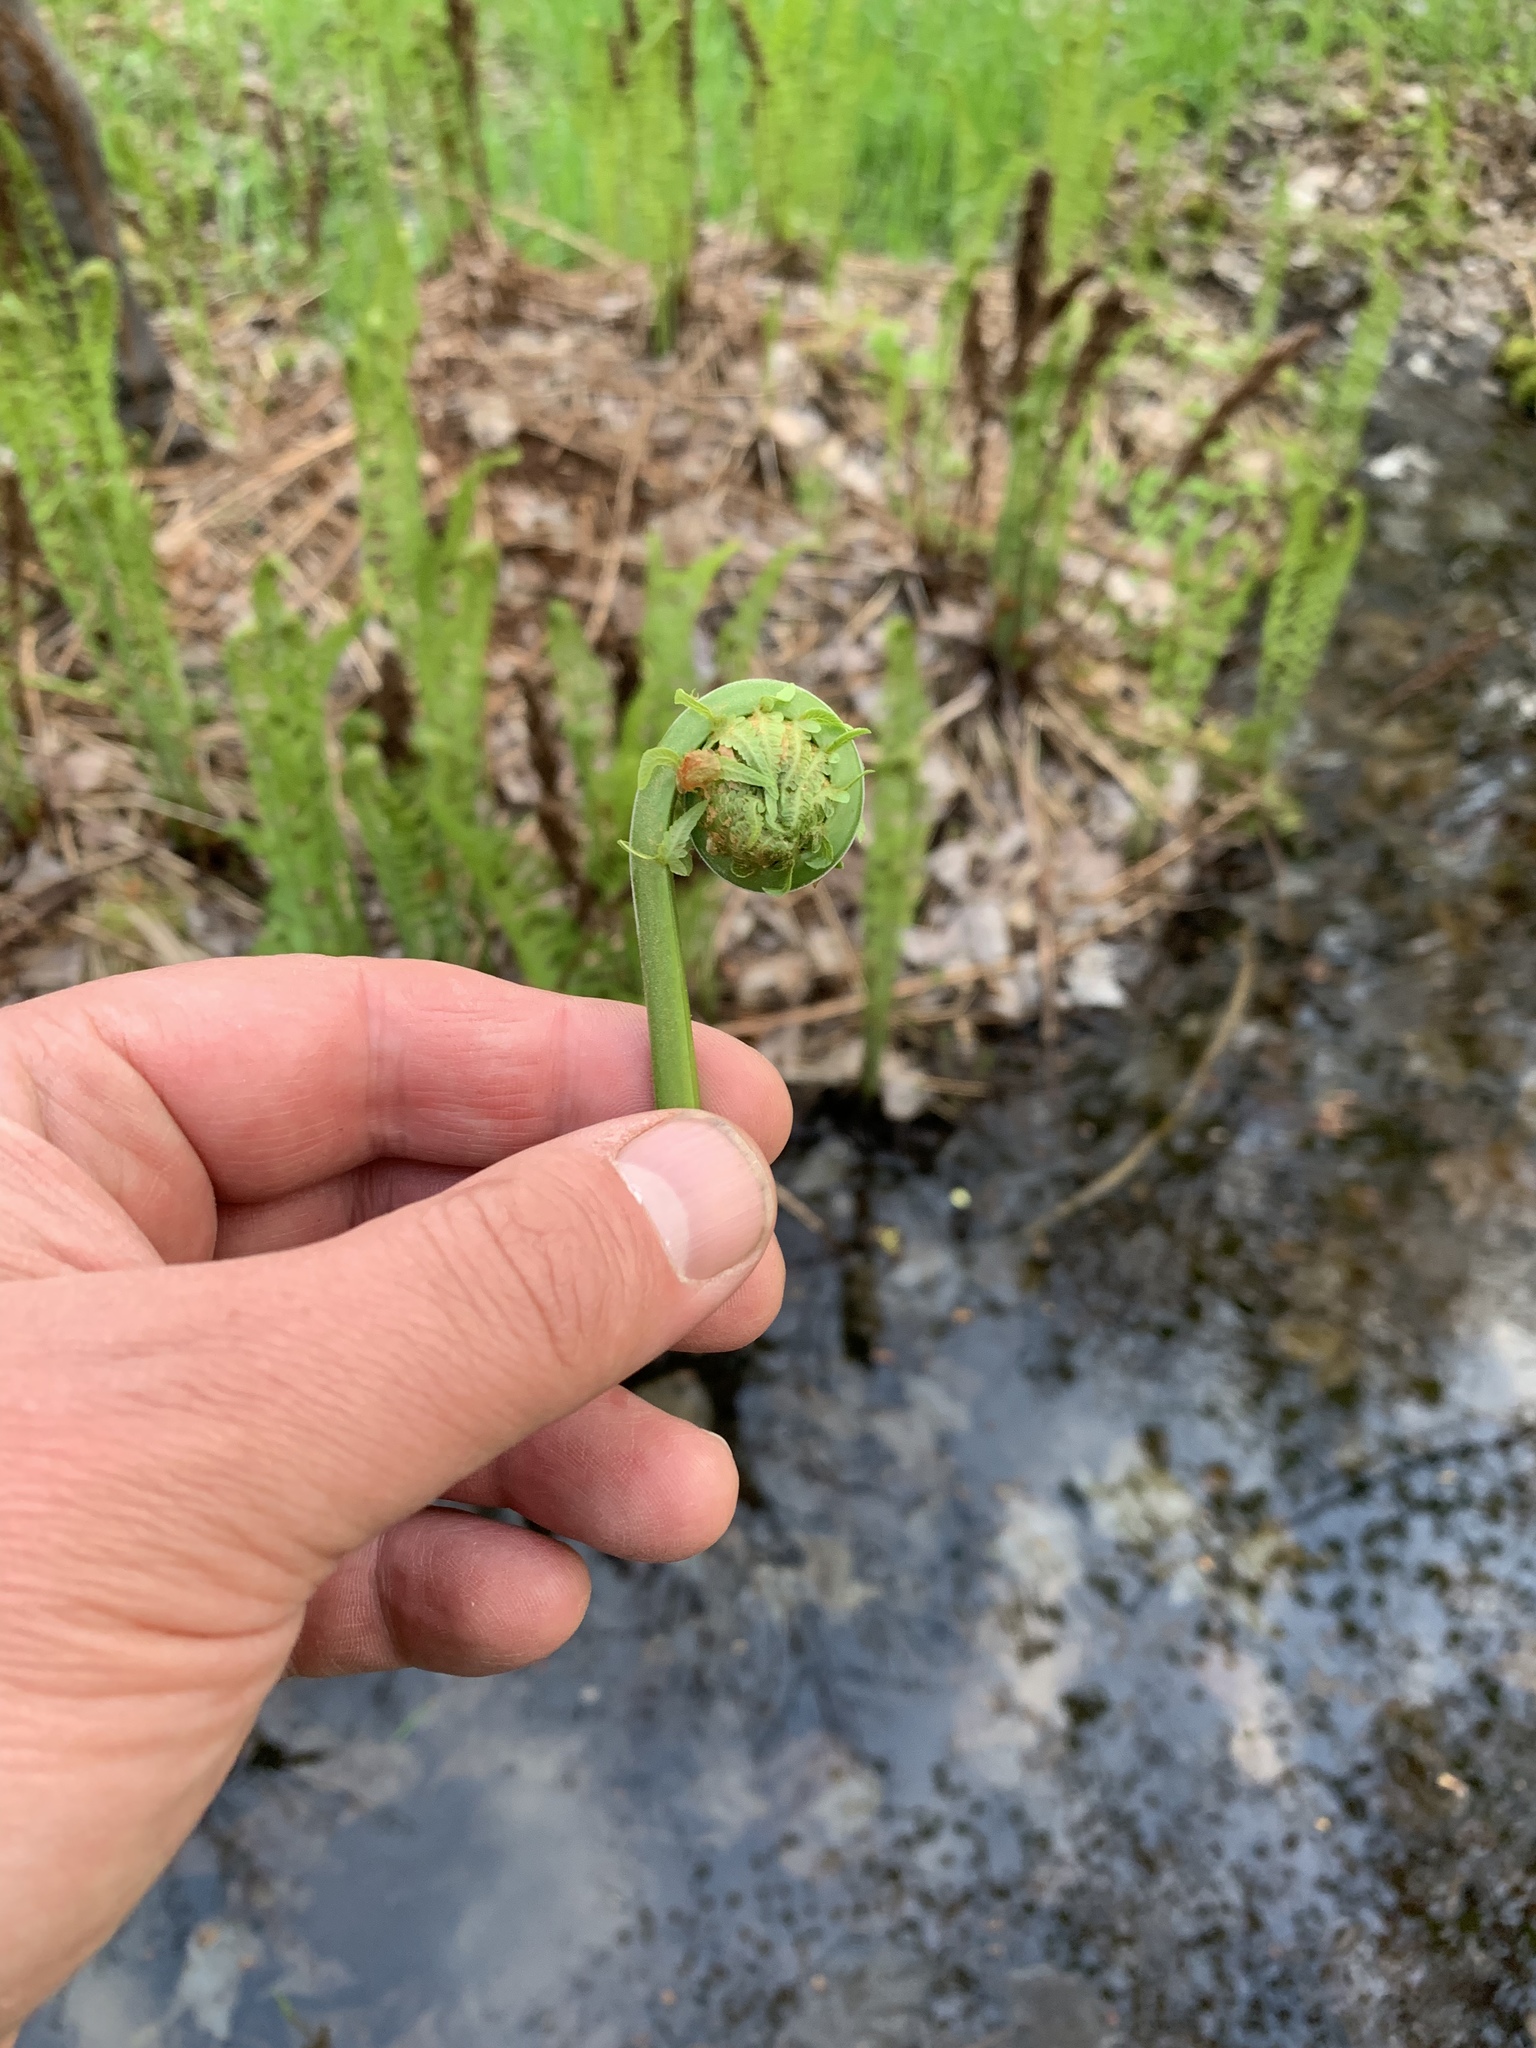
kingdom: Plantae
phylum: Tracheophyta
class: Polypodiopsida
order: Polypodiales
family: Onocleaceae
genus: Matteuccia
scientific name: Matteuccia struthiopteris
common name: Ostrich fern
